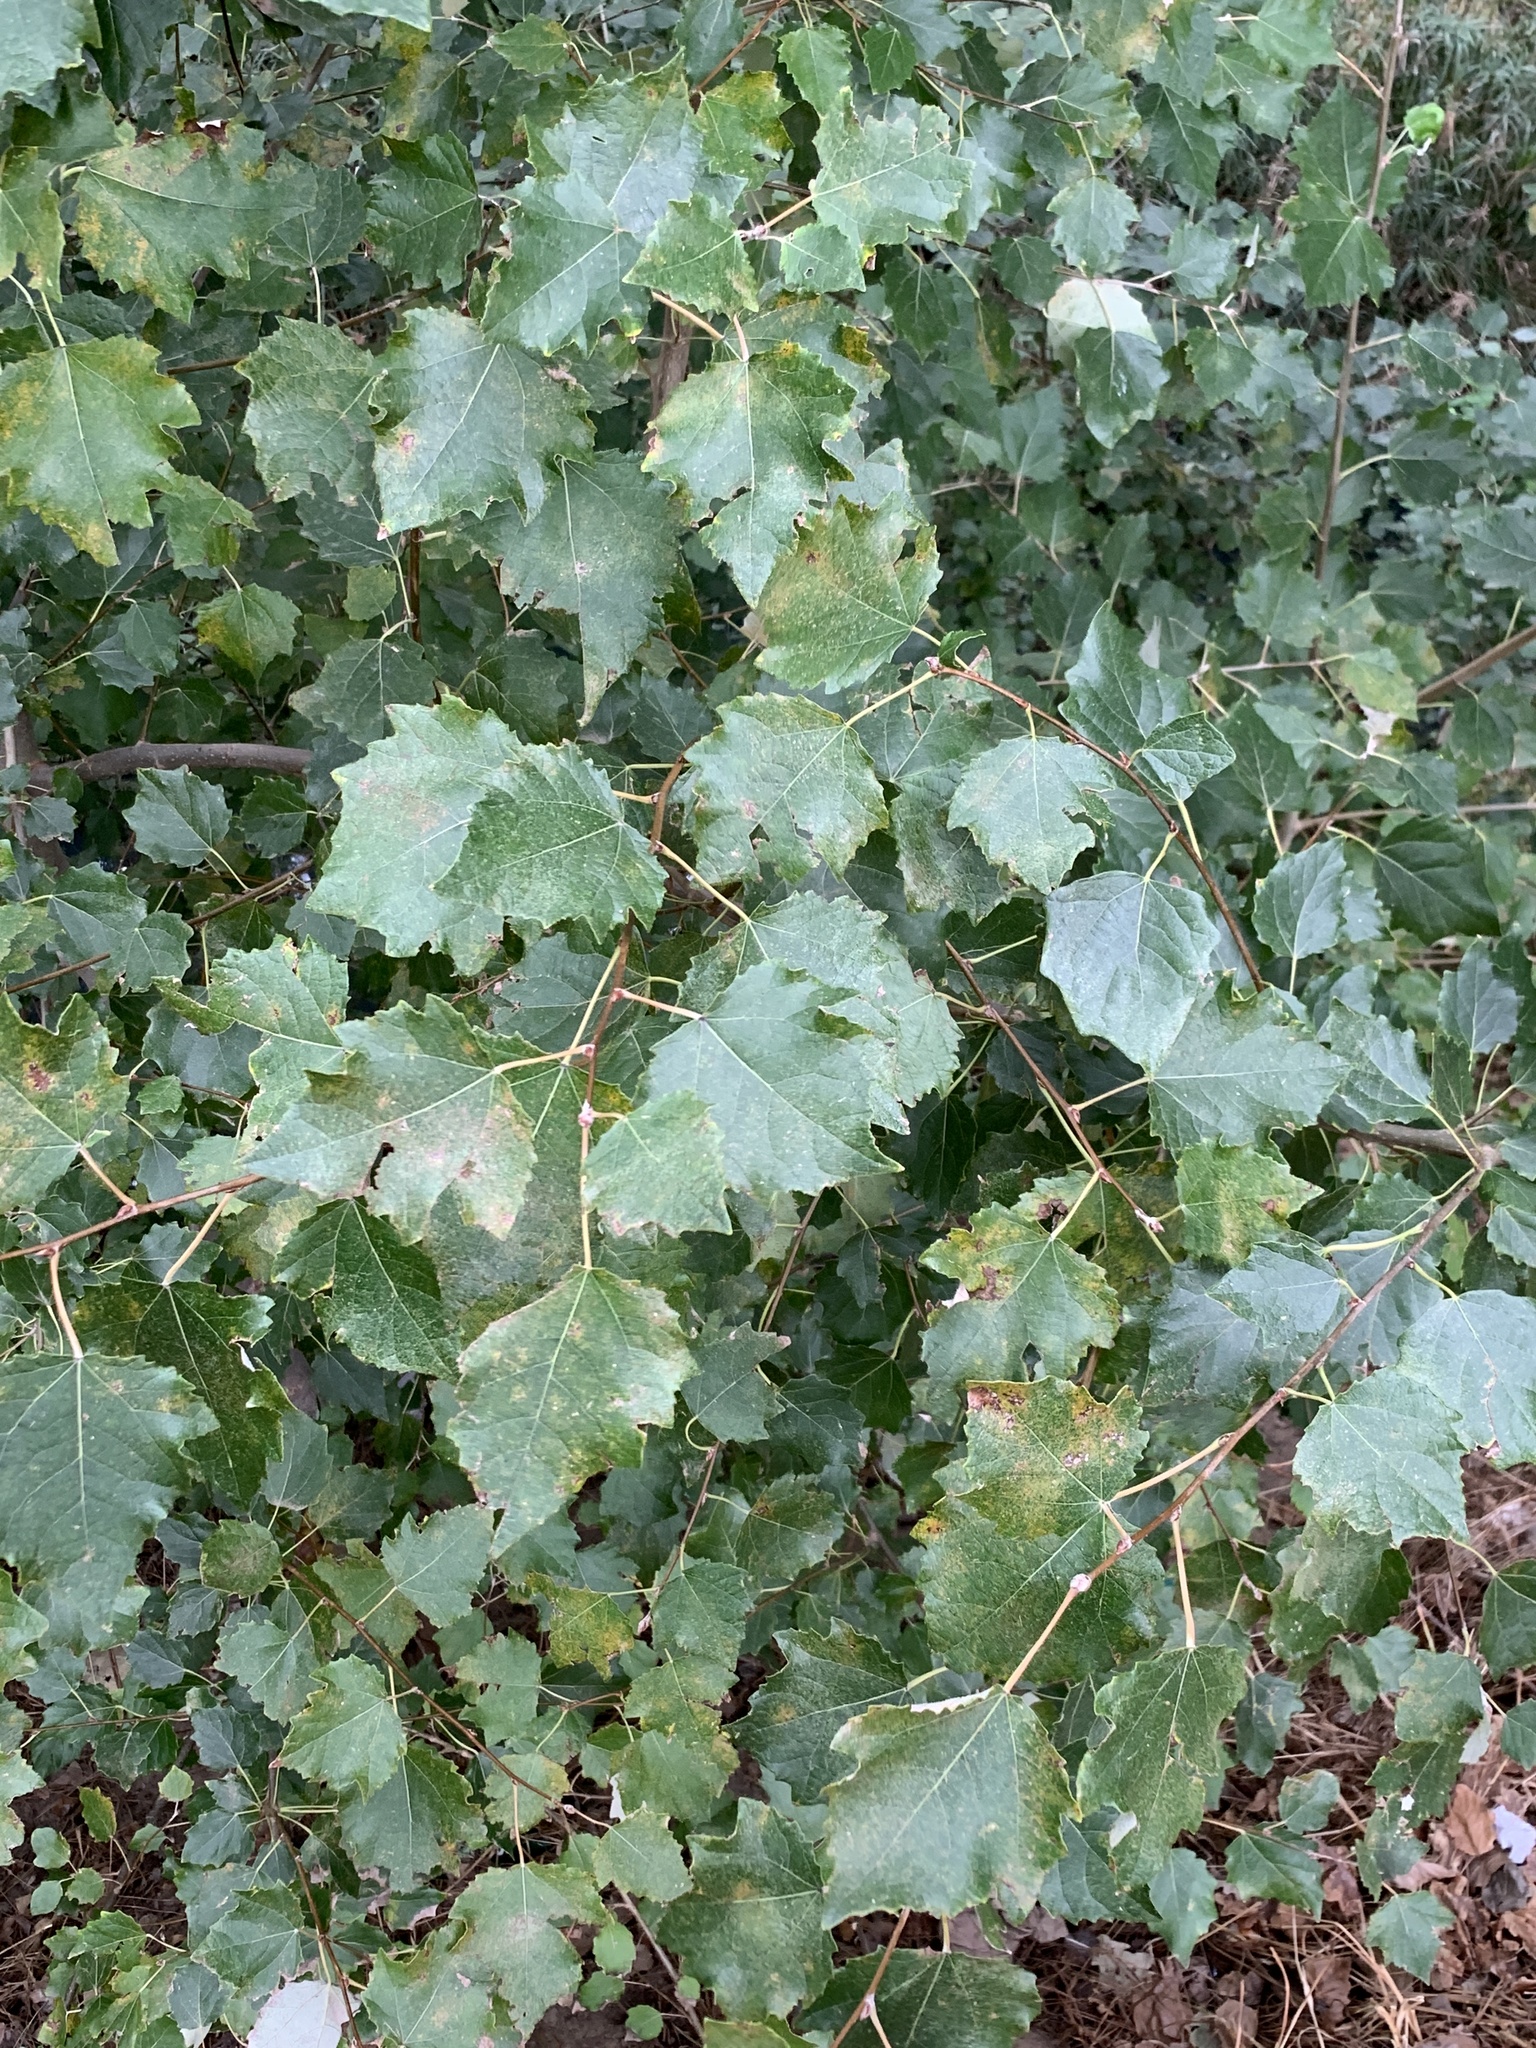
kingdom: Plantae
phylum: Tracheophyta
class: Magnoliopsida
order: Malpighiales
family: Salicaceae
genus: Populus
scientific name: Populus canescens
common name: Gray poplar
